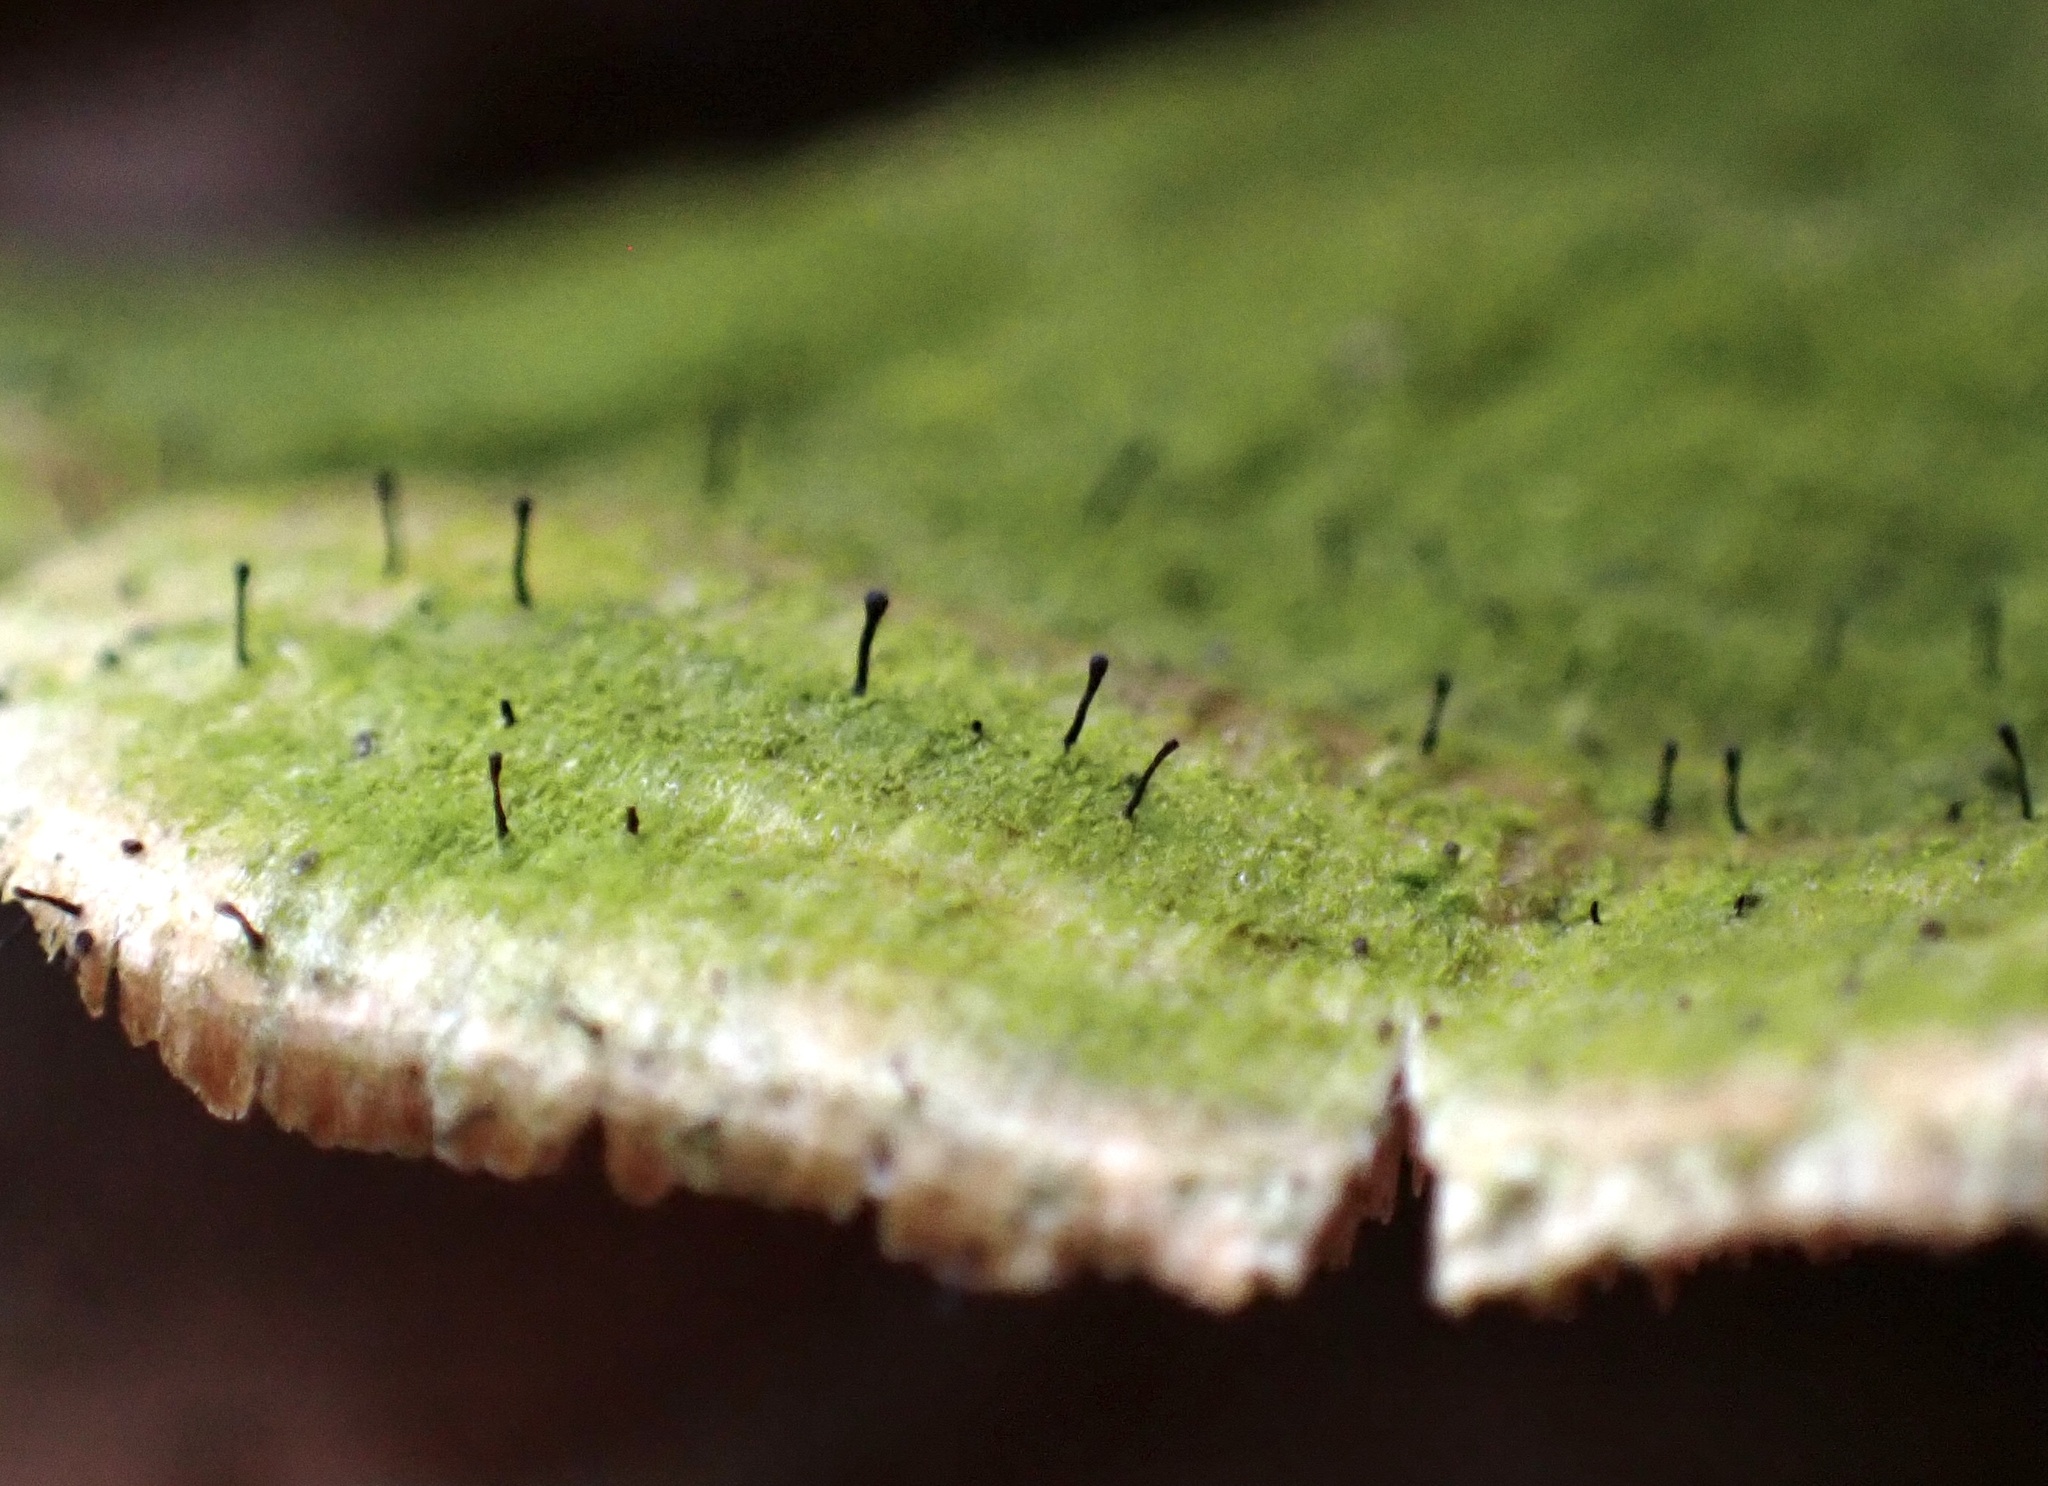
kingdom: Fungi
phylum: Ascomycota
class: Eurotiomycetes
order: Mycocaliciales
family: Mycocaliciaceae
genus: Phaeocalicium
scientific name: Phaeocalicium polyporaeum
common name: Fairy pins
